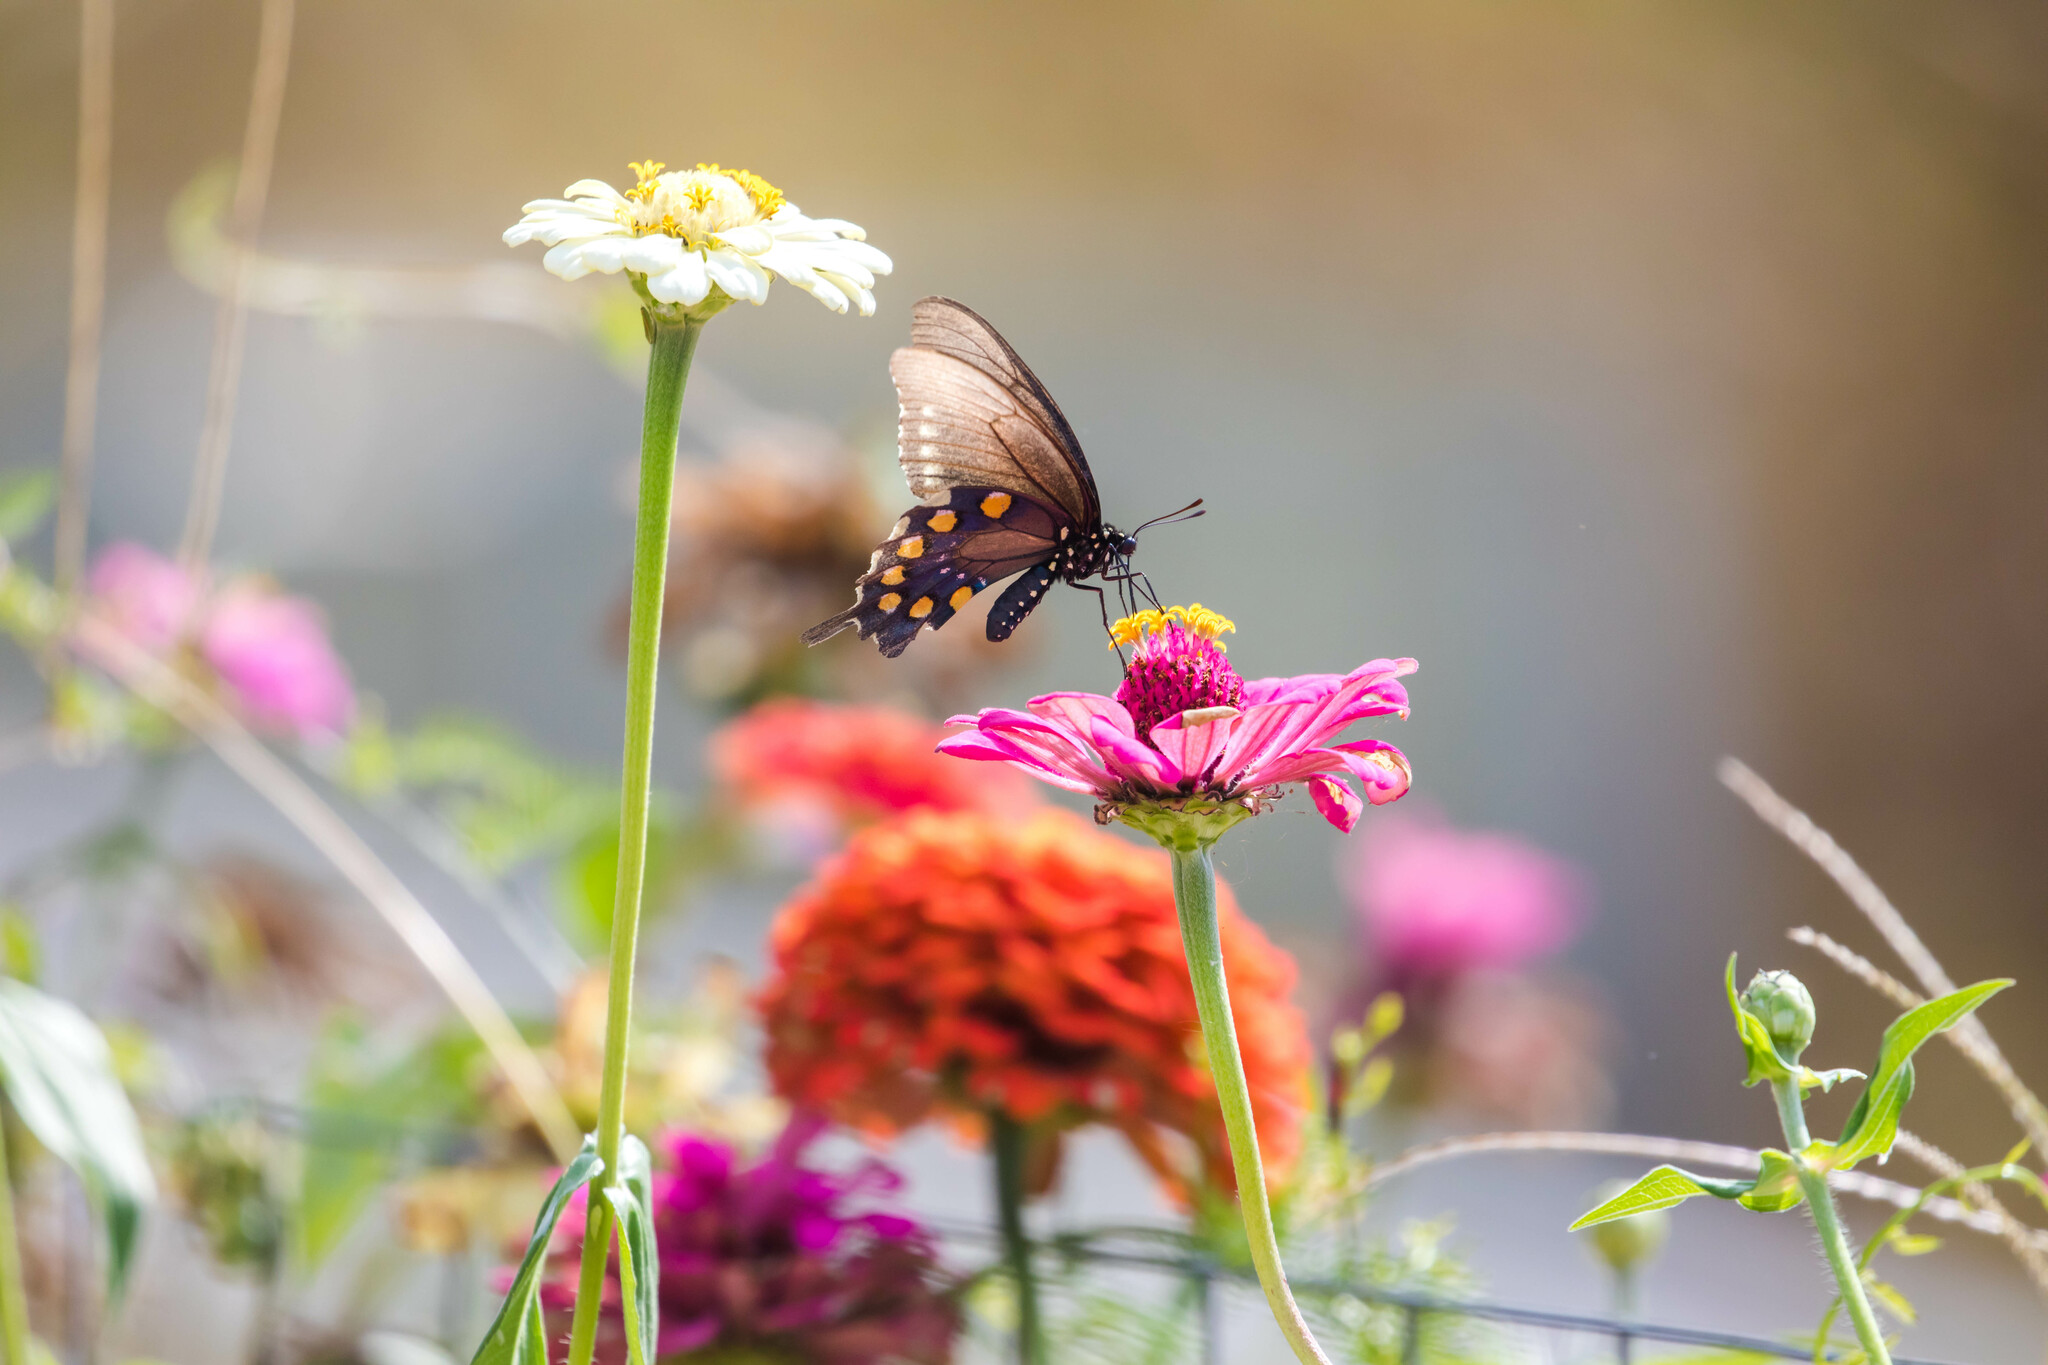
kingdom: Animalia
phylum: Arthropoda
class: Insecta
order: Lepidoptera
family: Papilionidae
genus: Battus
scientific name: Battus philenor
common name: Pipevine swallowtail
